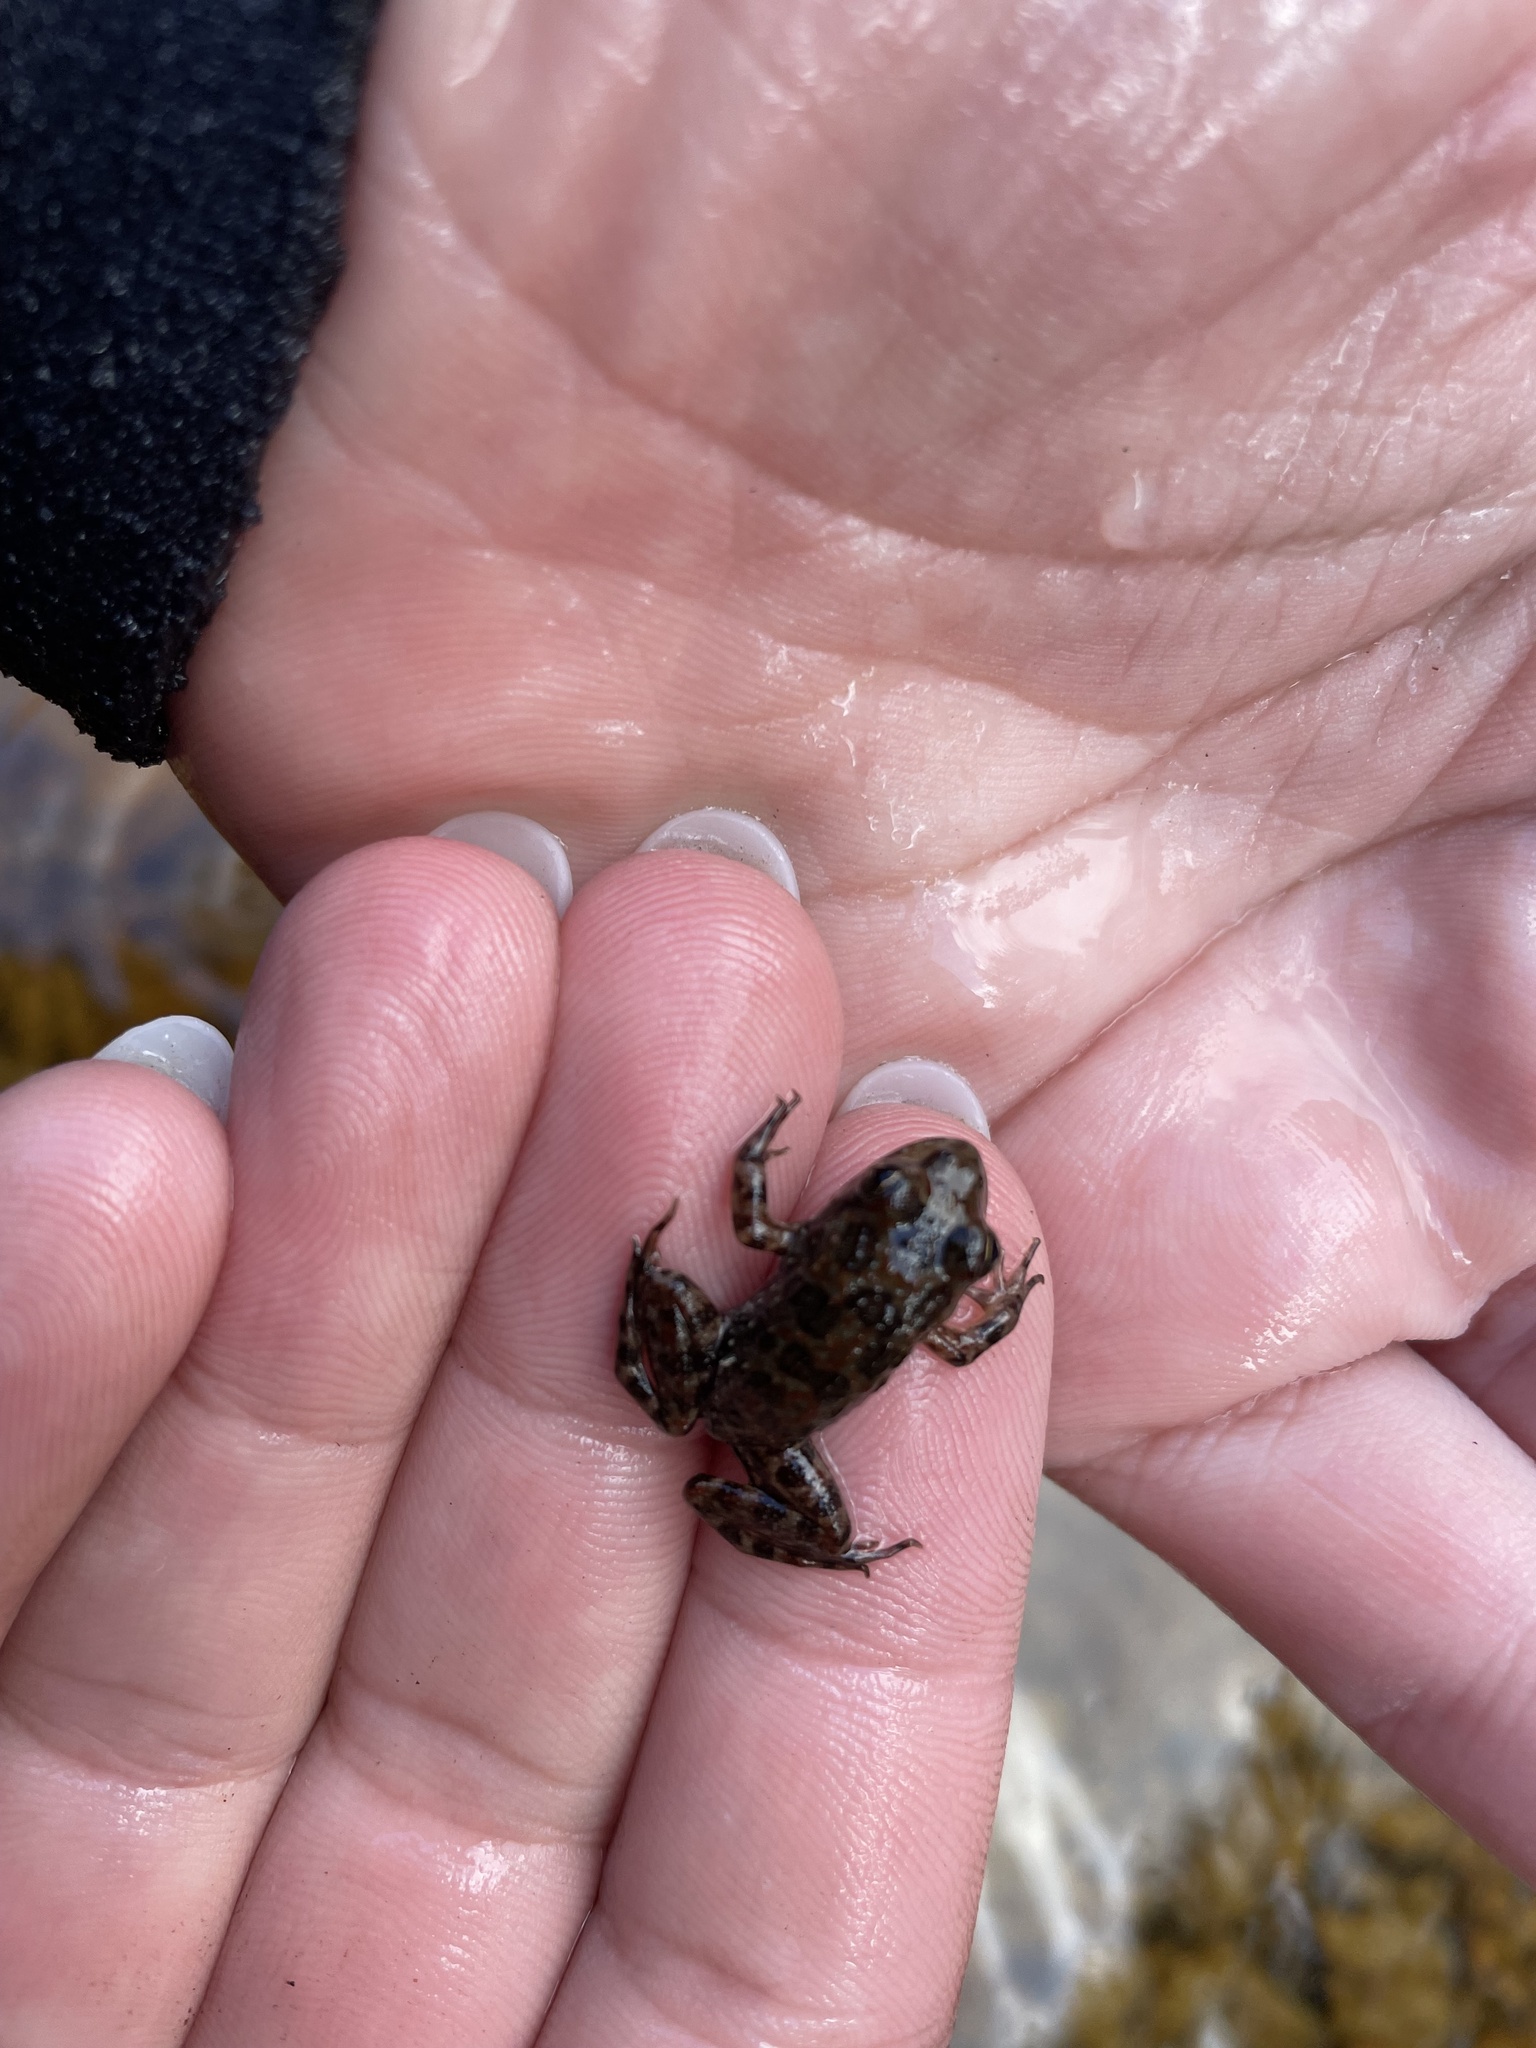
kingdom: Animalia
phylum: Chordata
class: Amphibia
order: Anura
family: Pyxicephalidae
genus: Amietia
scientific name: Amietia fuscigula
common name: Cape rana
